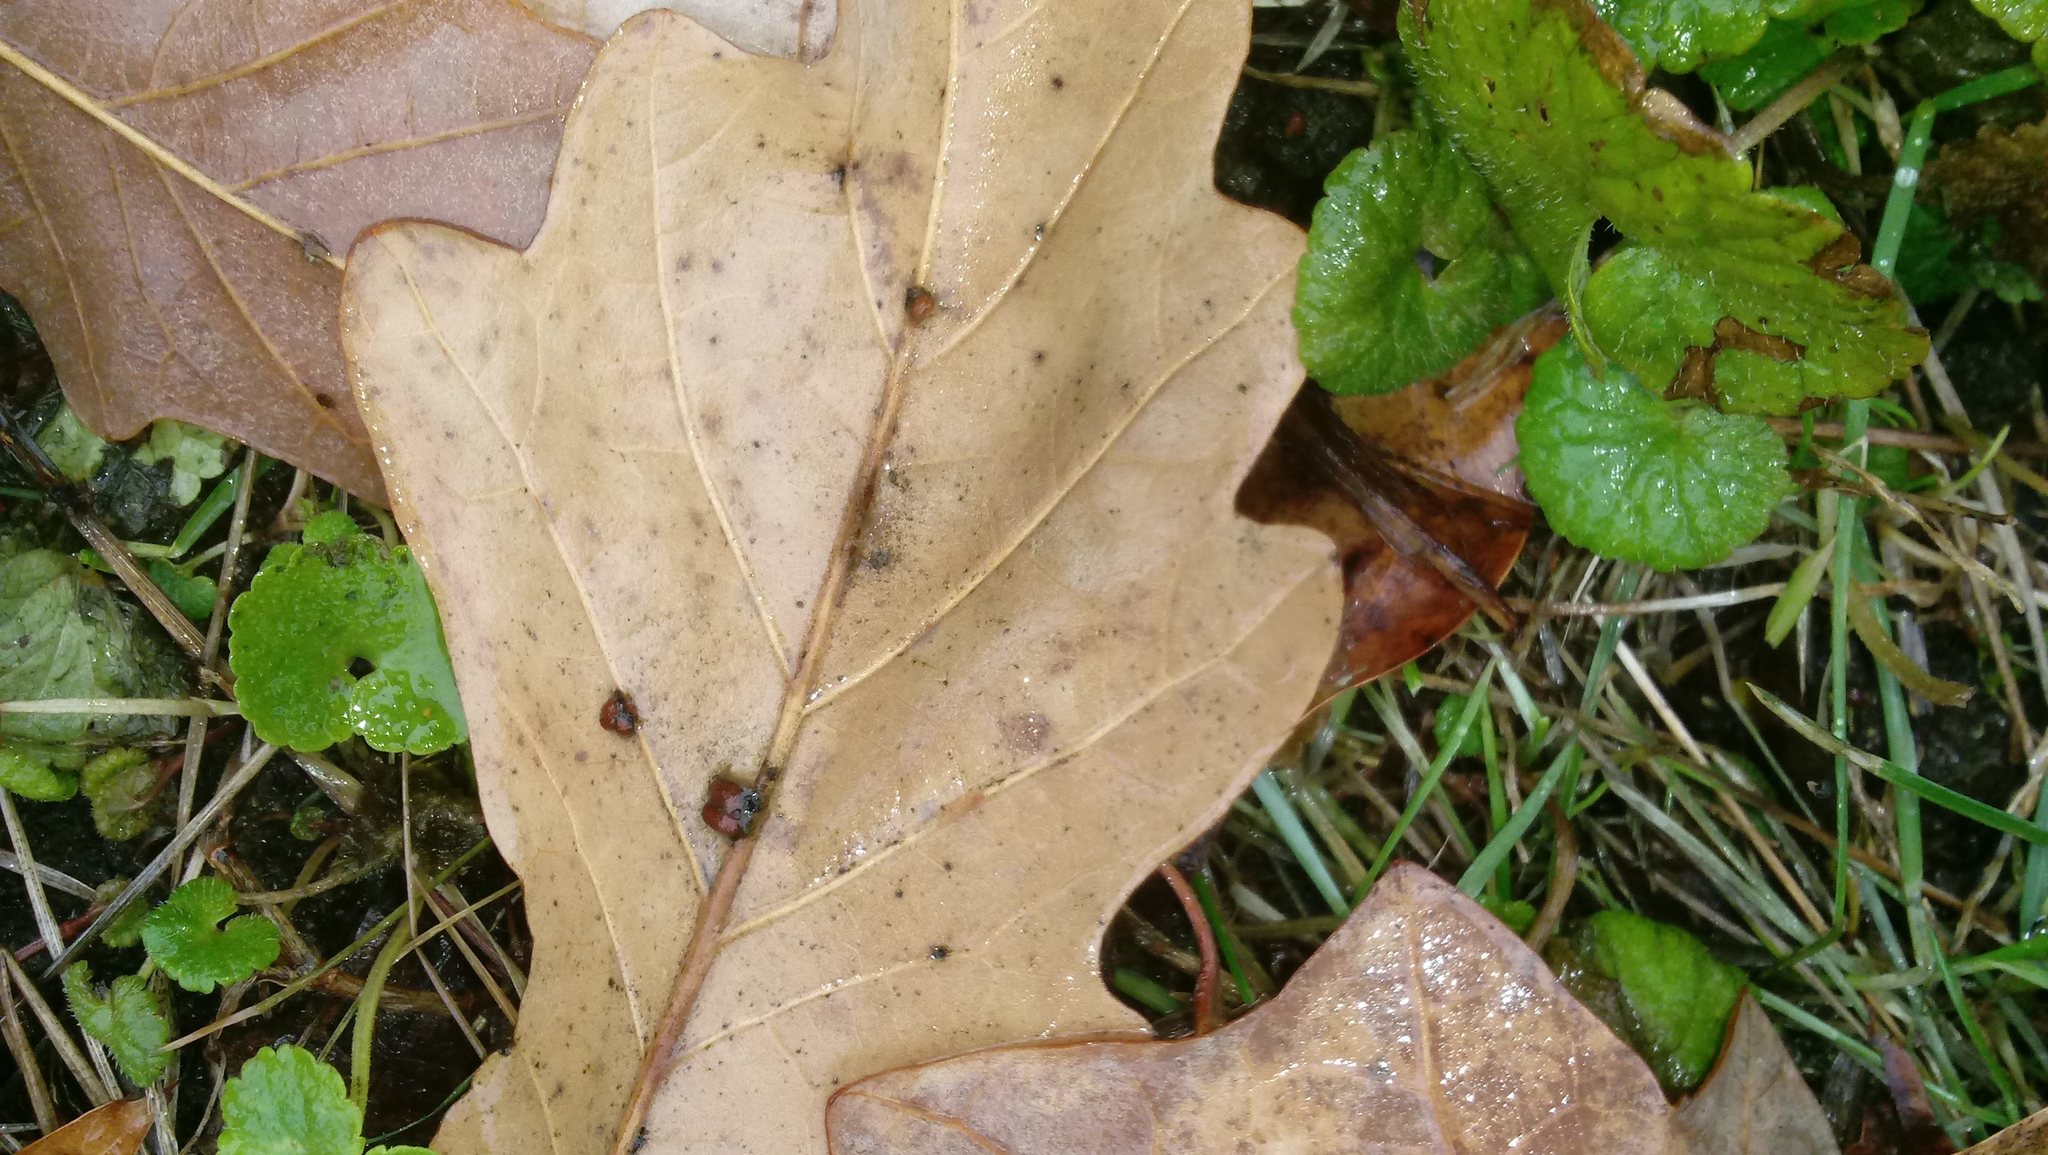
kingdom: Animalia
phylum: Arthropoda
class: Insecta
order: Hymenoptera
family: Cynipidae
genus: Andricus
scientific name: Andricus Druon ignotum
